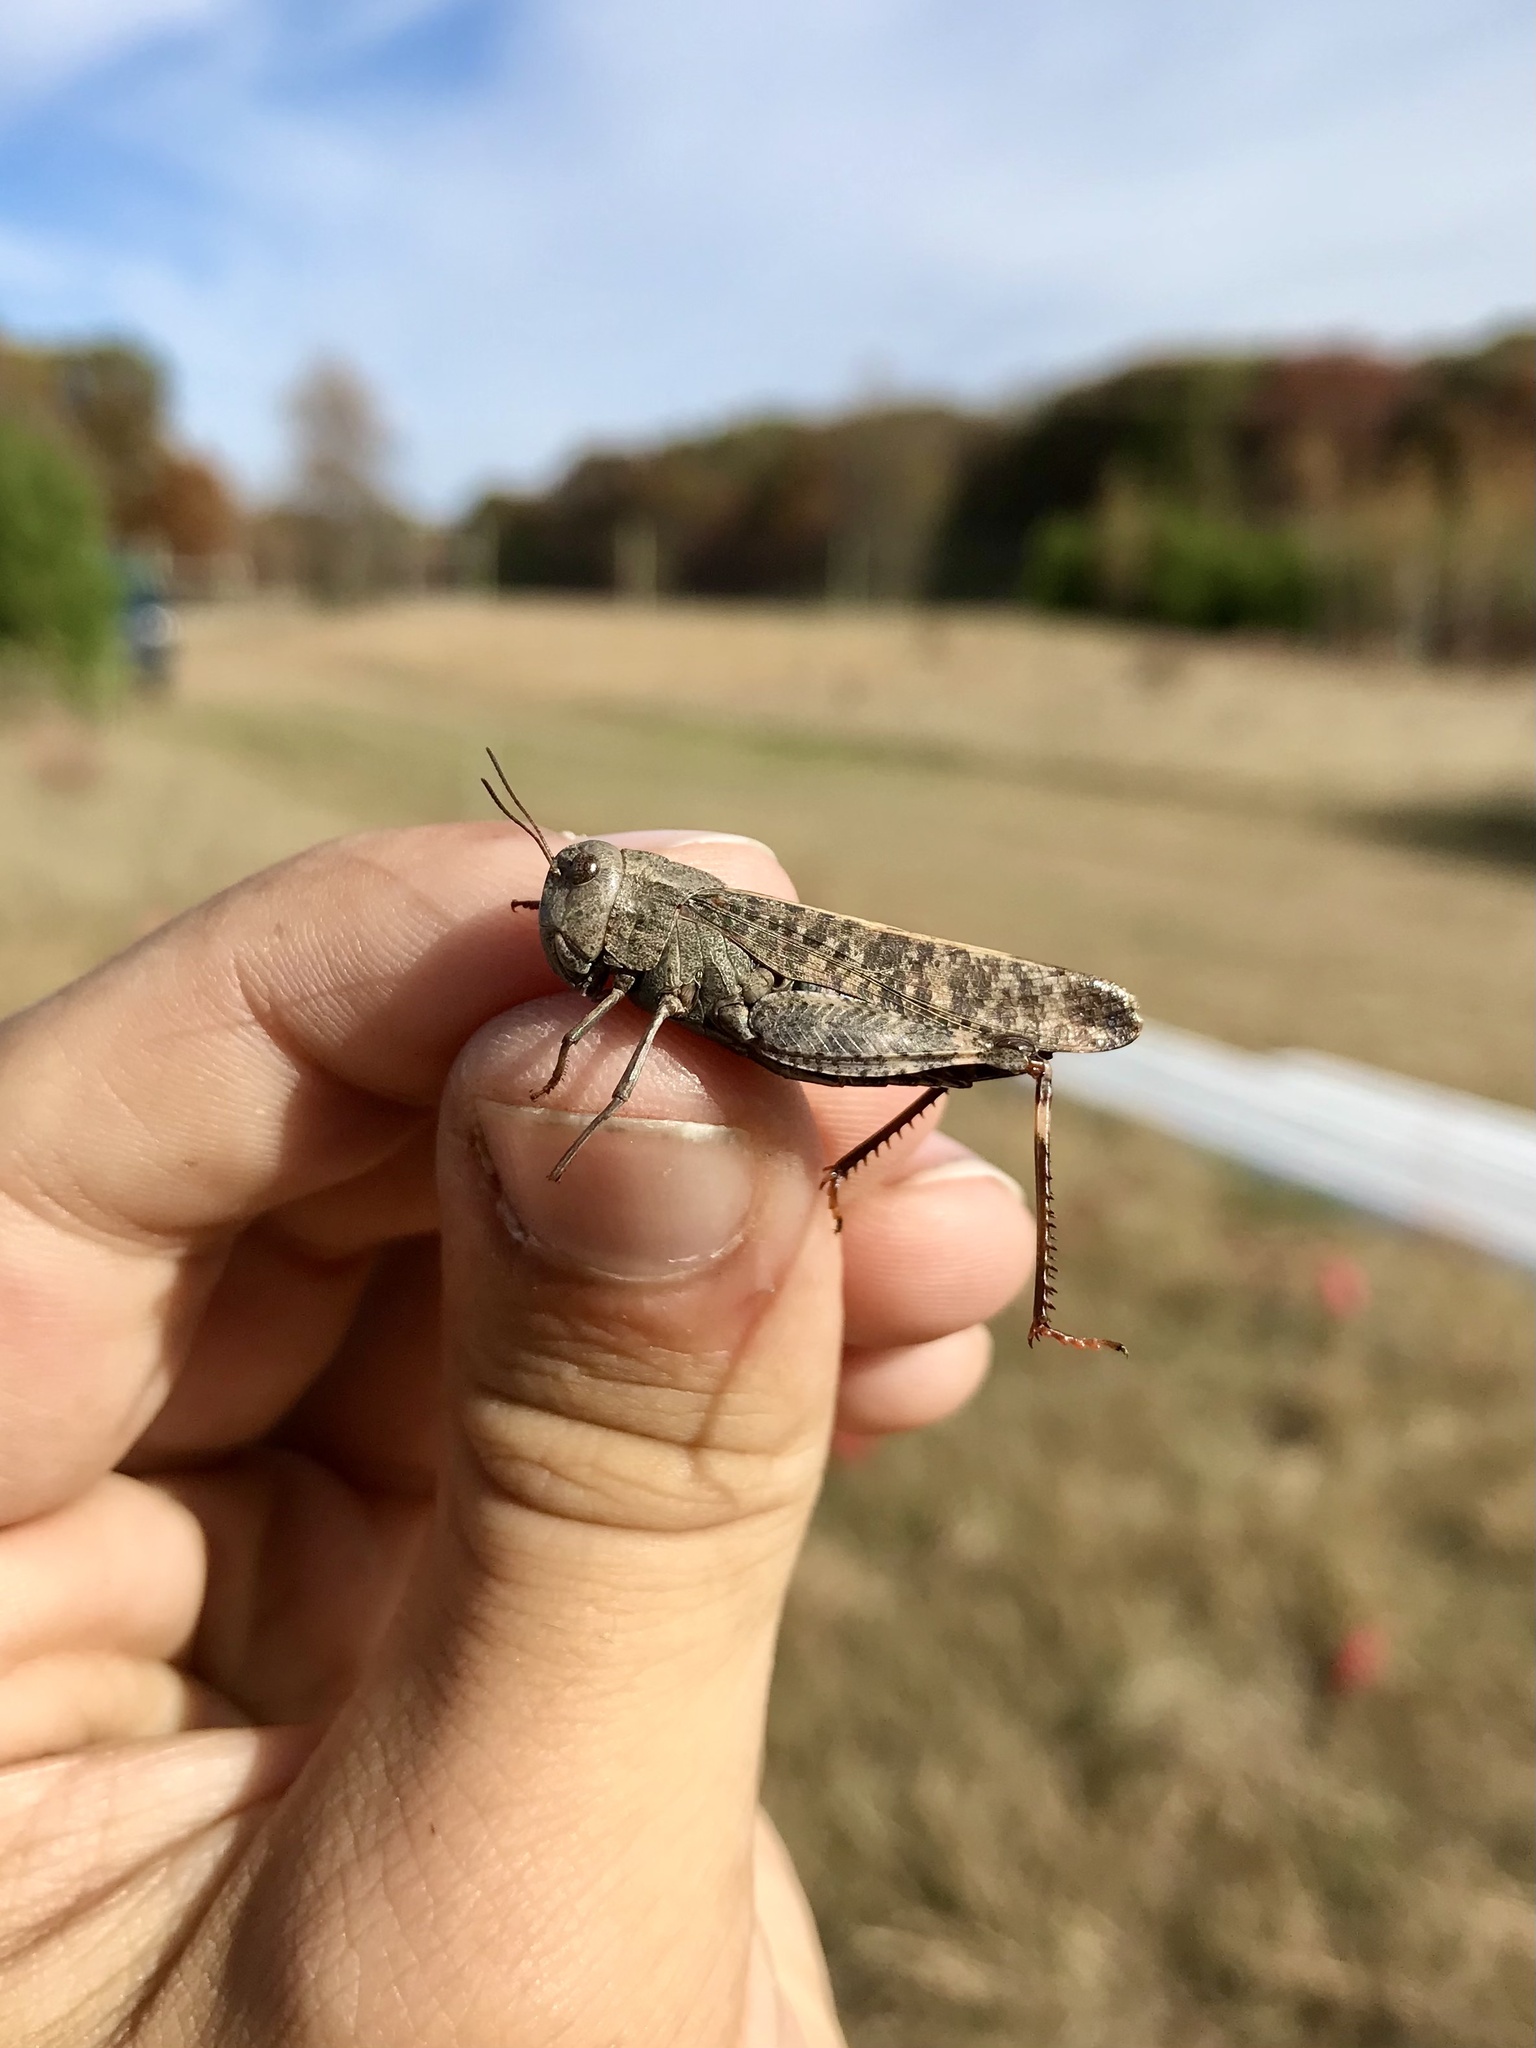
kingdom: Animalia
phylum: Arthropoda
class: Insecta
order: Orthoptera
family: Acrididae
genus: Arphia
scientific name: Arphia pseudo-nietana
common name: Red-winged grasshopper
